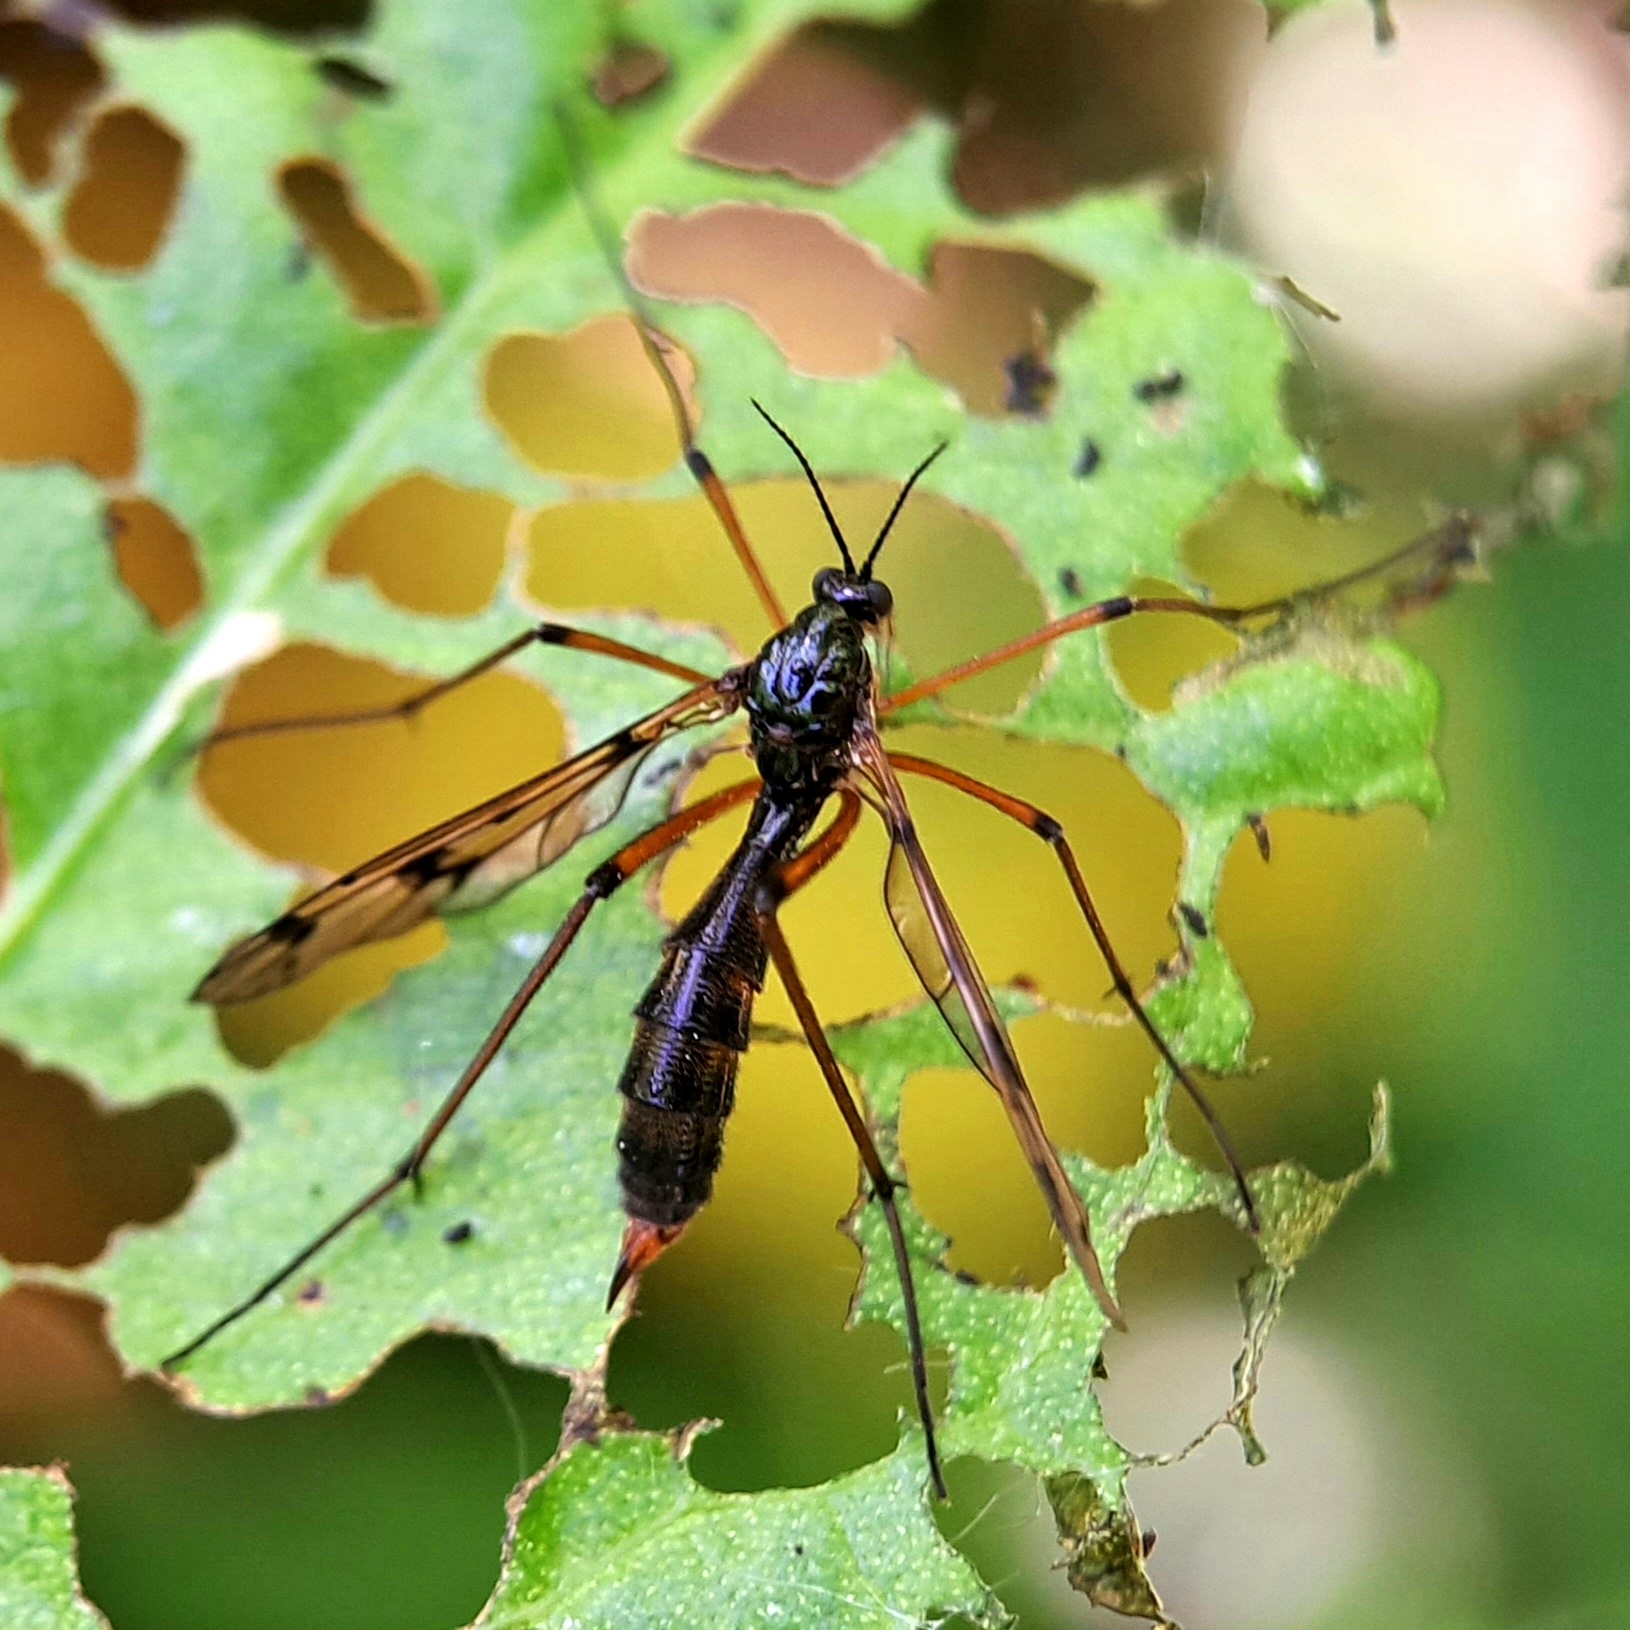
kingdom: Animalia
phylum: Arthropoda
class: Insecta
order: Diptera
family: Ptychopteridae
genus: Ptychoptera
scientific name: Ptychoptera contaminata
